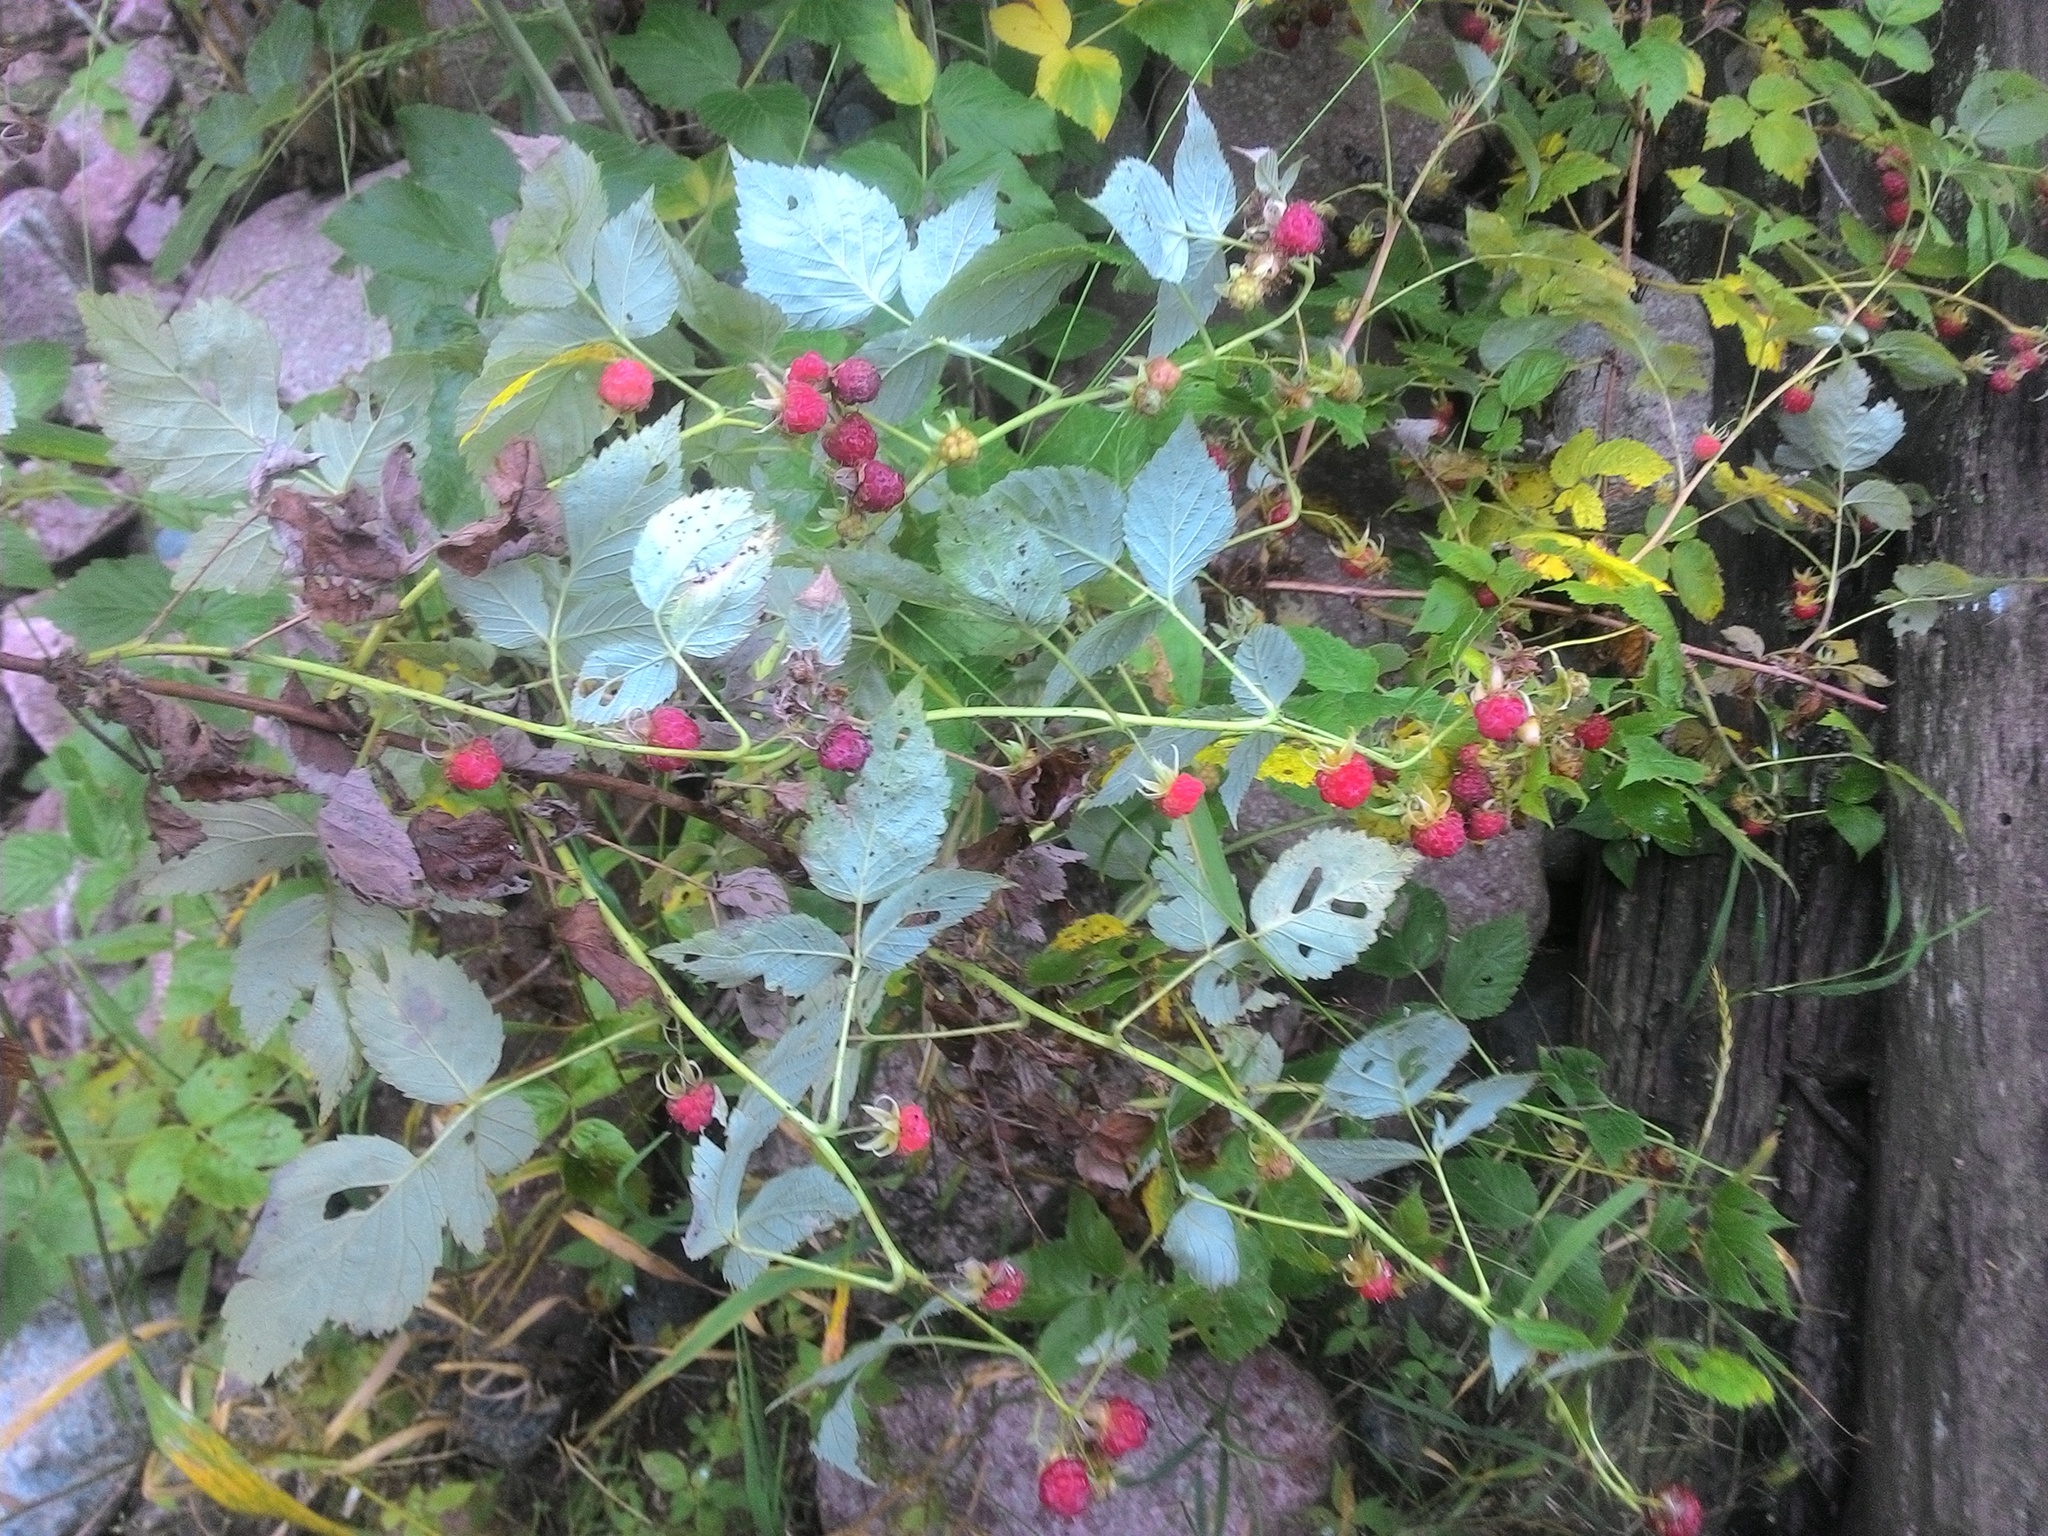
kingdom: Plantae
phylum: Tracheophyta
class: Magnoliopsida
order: Rosales
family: Rosaceae
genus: Rubus
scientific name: Rubus idaeus
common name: Raspberry
